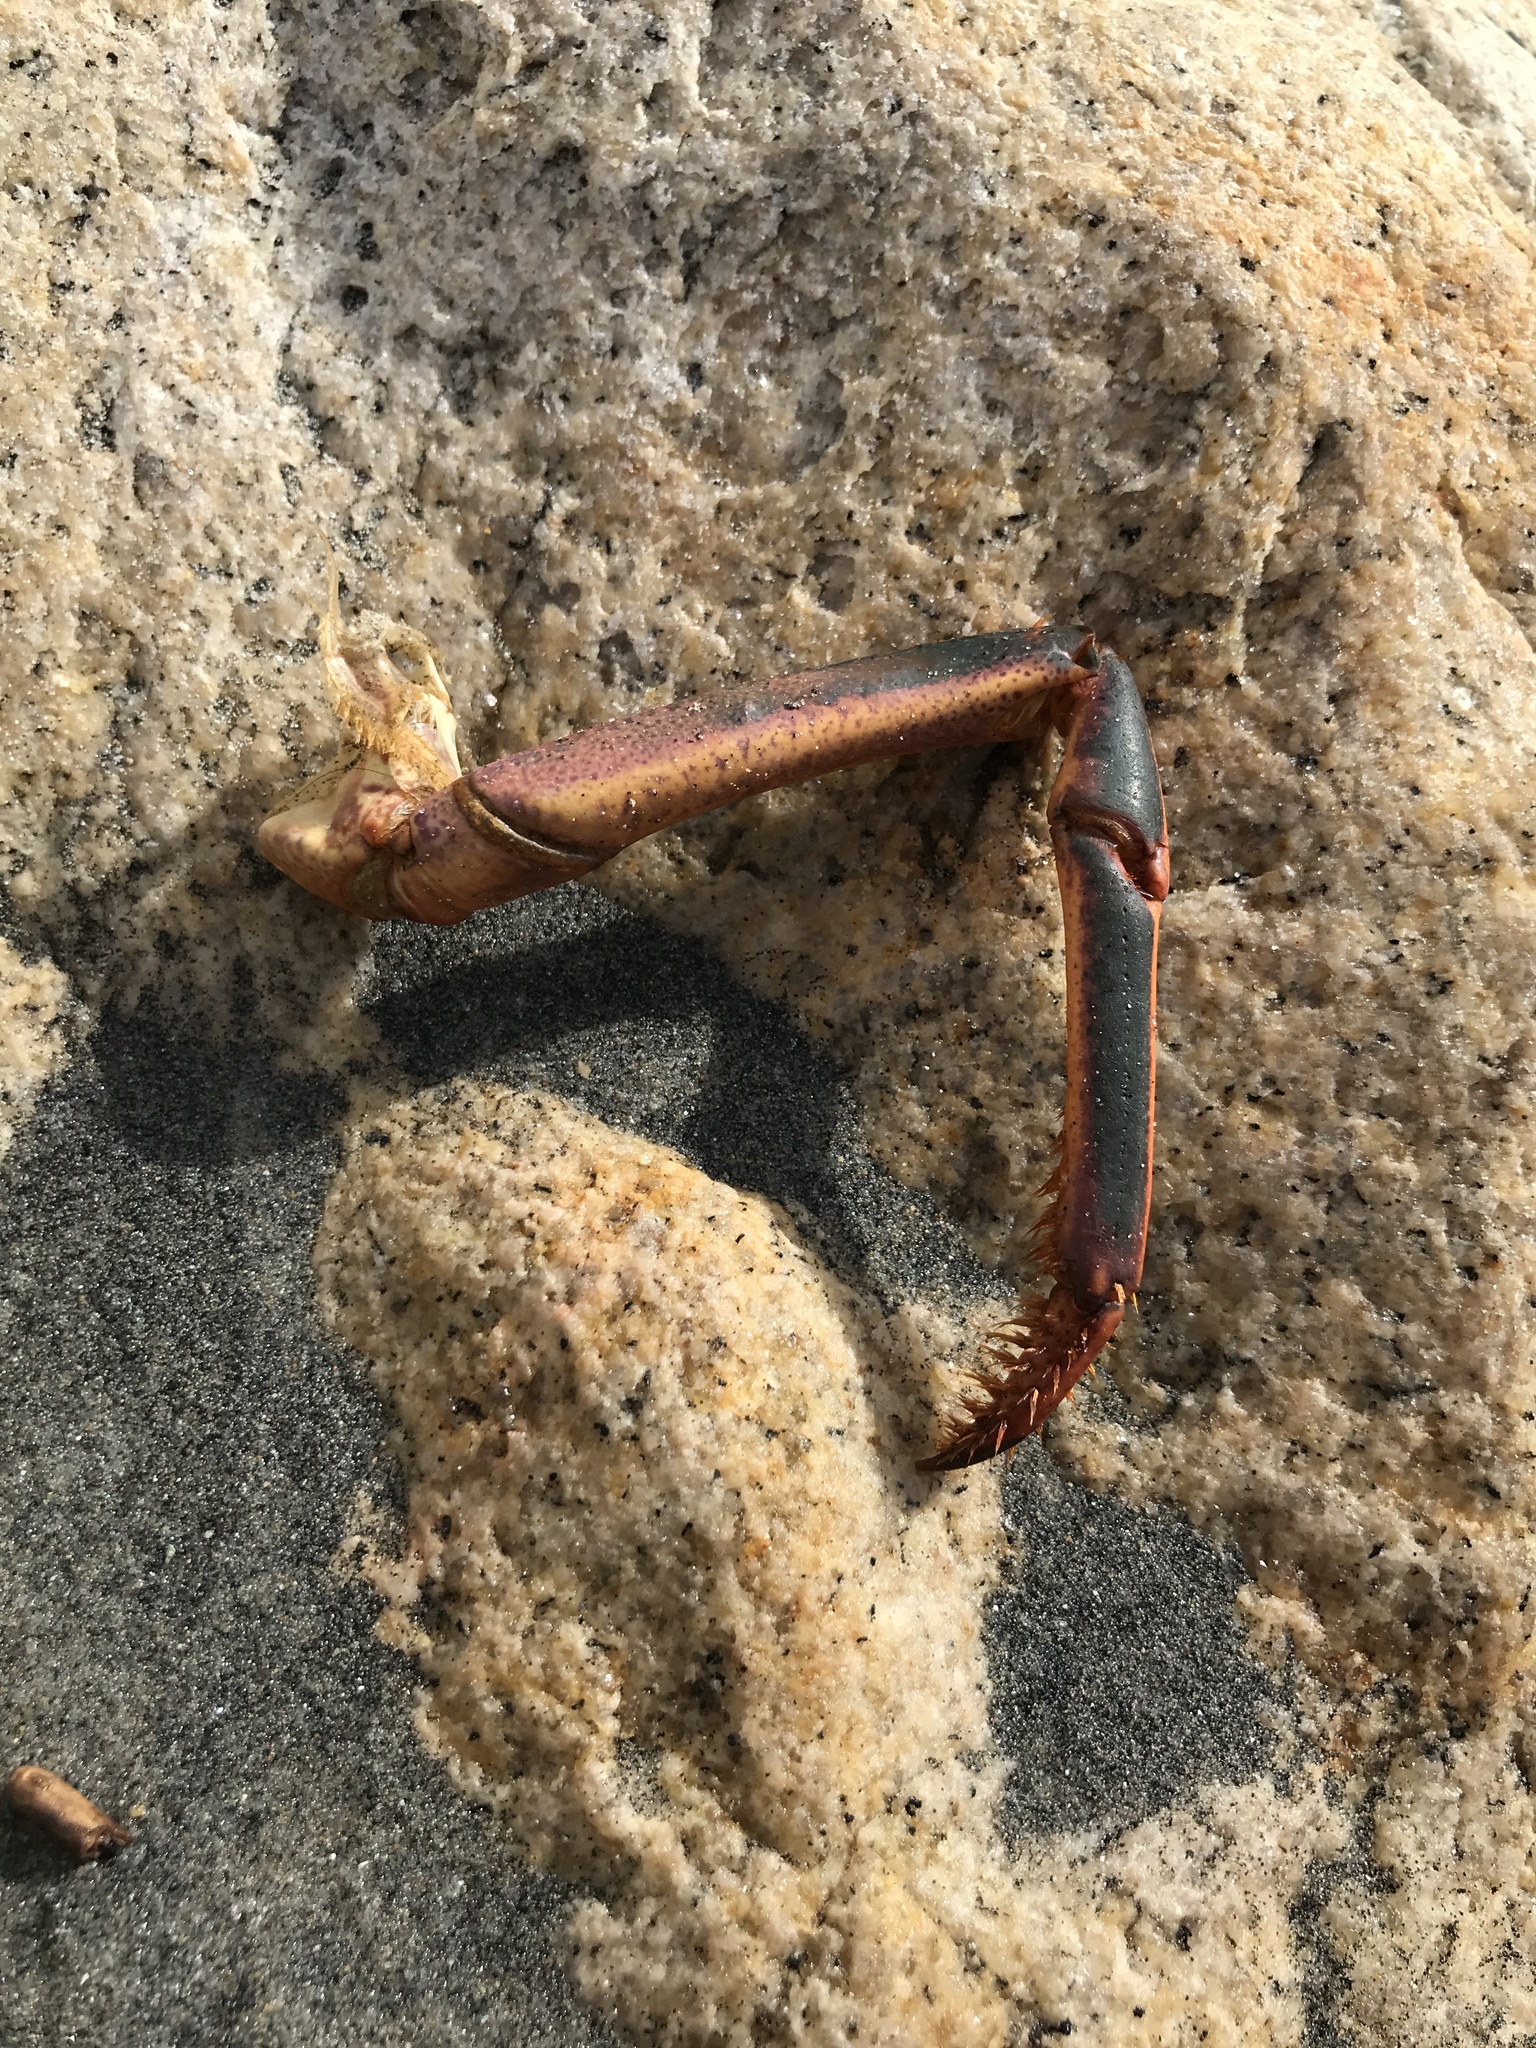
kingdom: Animalia
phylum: Arthropoda
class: Malacostraca
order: Decapoda
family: Palinuridae
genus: Panulirus
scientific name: Panulirus interruptus
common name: California spiny lobster
